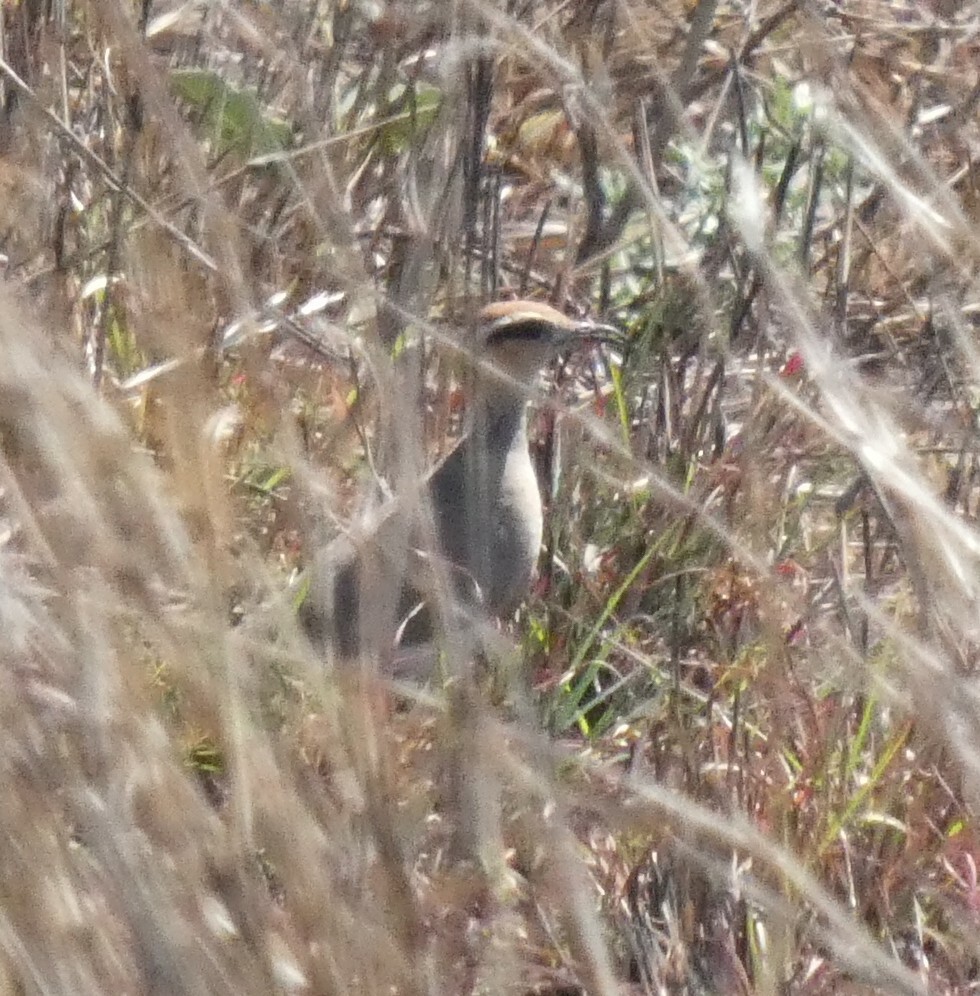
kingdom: Animalia
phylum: Chordata
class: Aves
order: Charadriiformes
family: Glareolidae
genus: Cursorius
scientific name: Cursorius temminckii
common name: Temminck's courser
